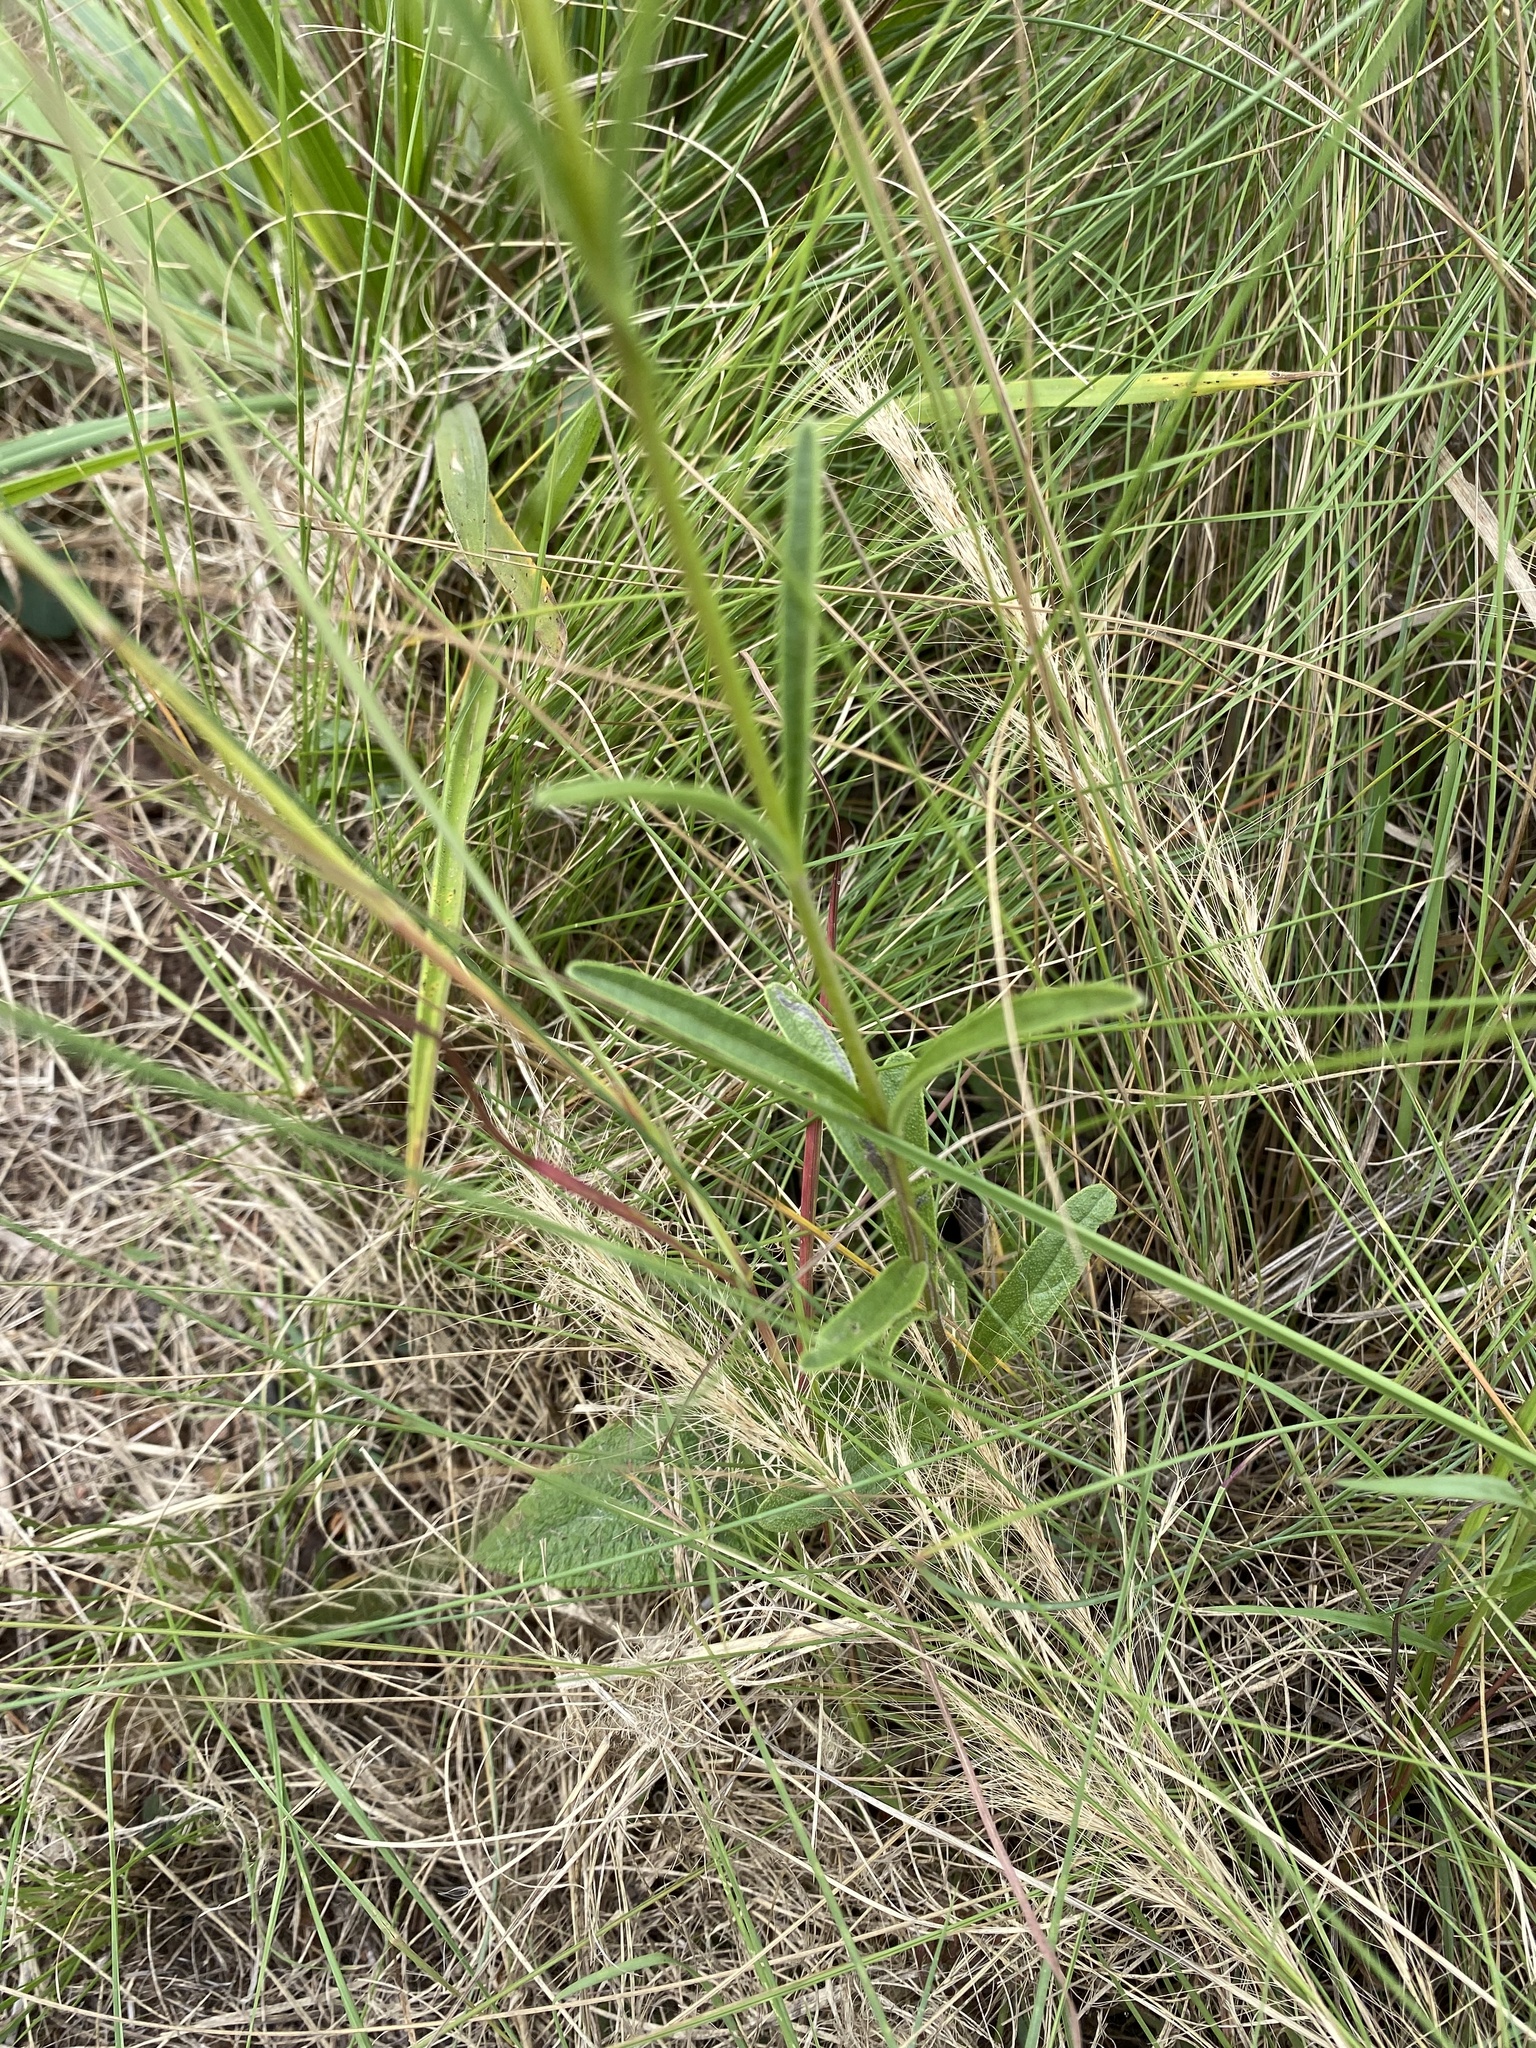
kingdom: Plantae
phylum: Tracheophyta
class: Magnoliopsida
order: Lamiales
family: Orobanchaceae
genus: Buchnera
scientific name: Buchnera dura
